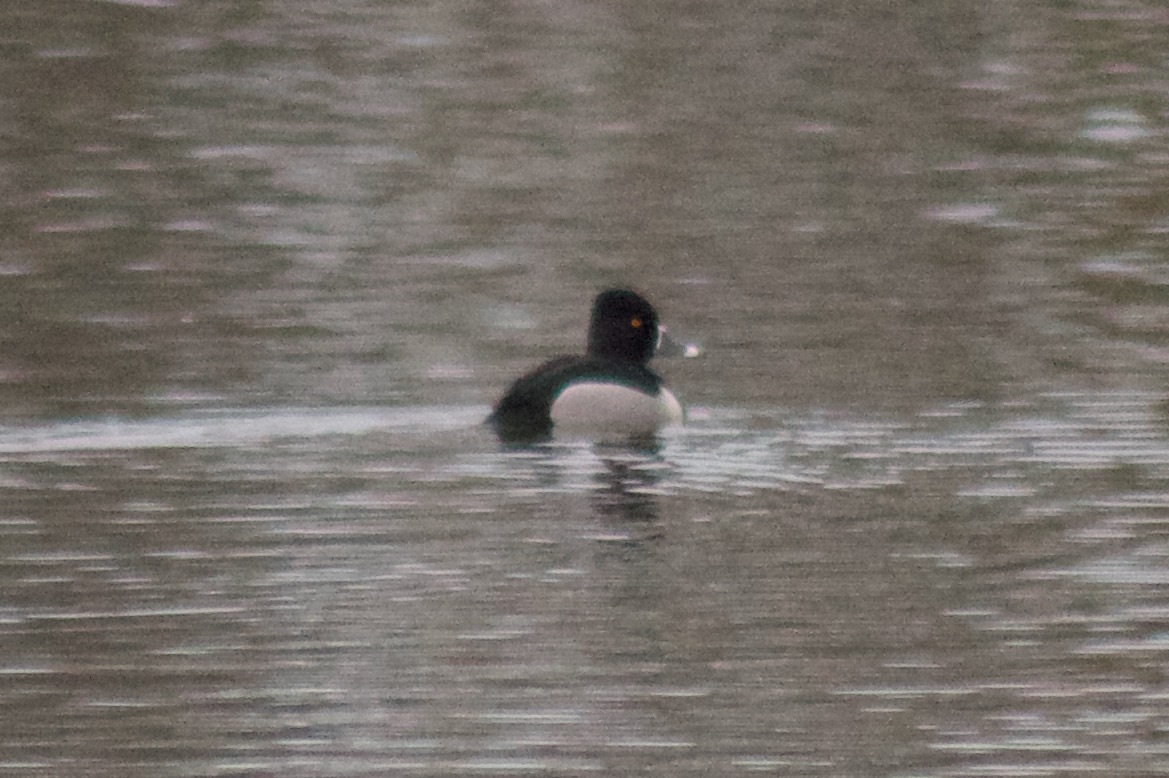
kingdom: Animalia
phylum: Chordata
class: Aves
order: Anseriformes
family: Anatidae
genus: Aythya
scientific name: Aythya collaris
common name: Ring-necked duck
